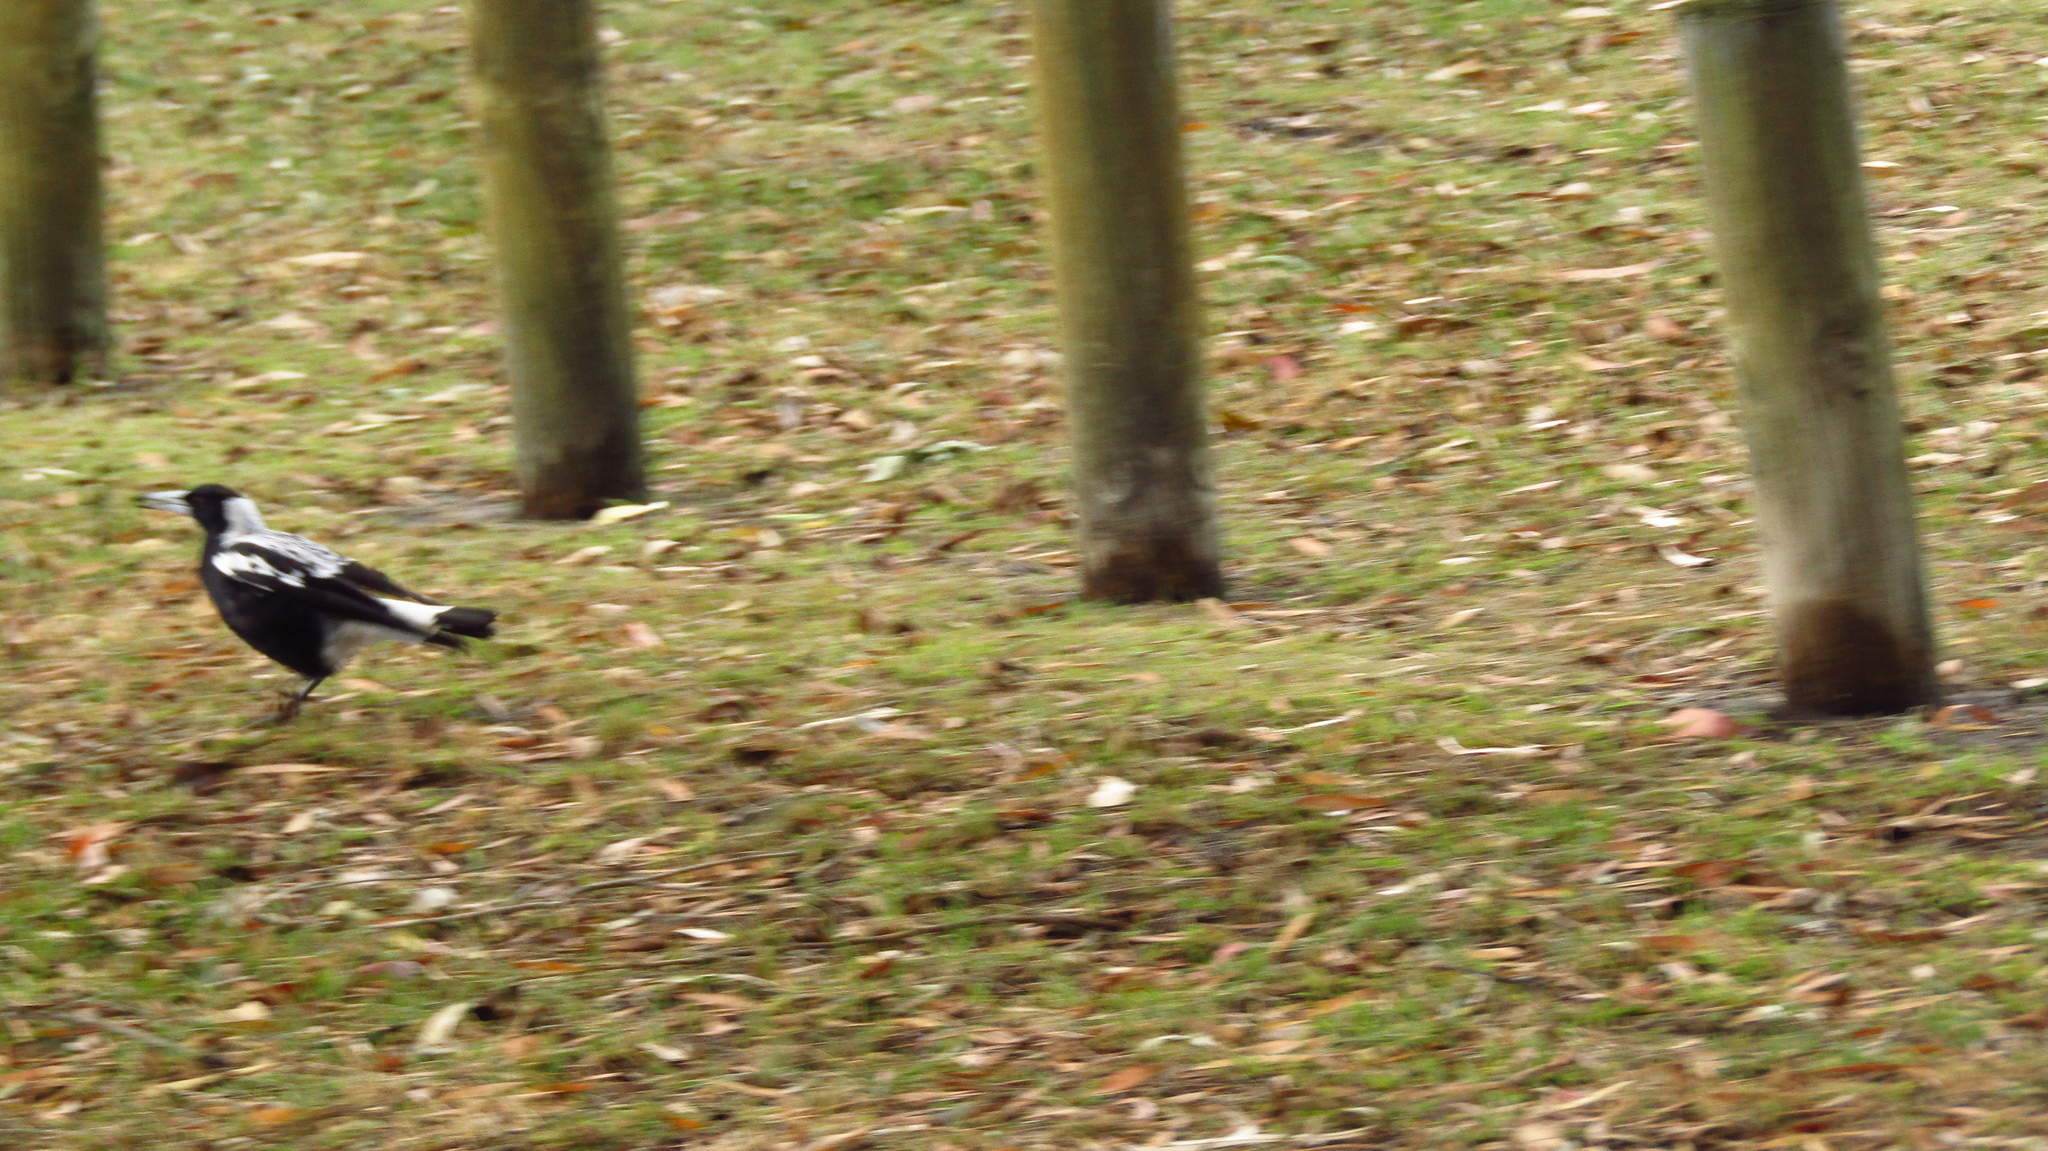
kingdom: Animalia
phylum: Chordata
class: Aves
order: Passeriformes
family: Cracticidae
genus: Gymnorhina
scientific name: Gymnorhina tibicen
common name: Australian magpie
